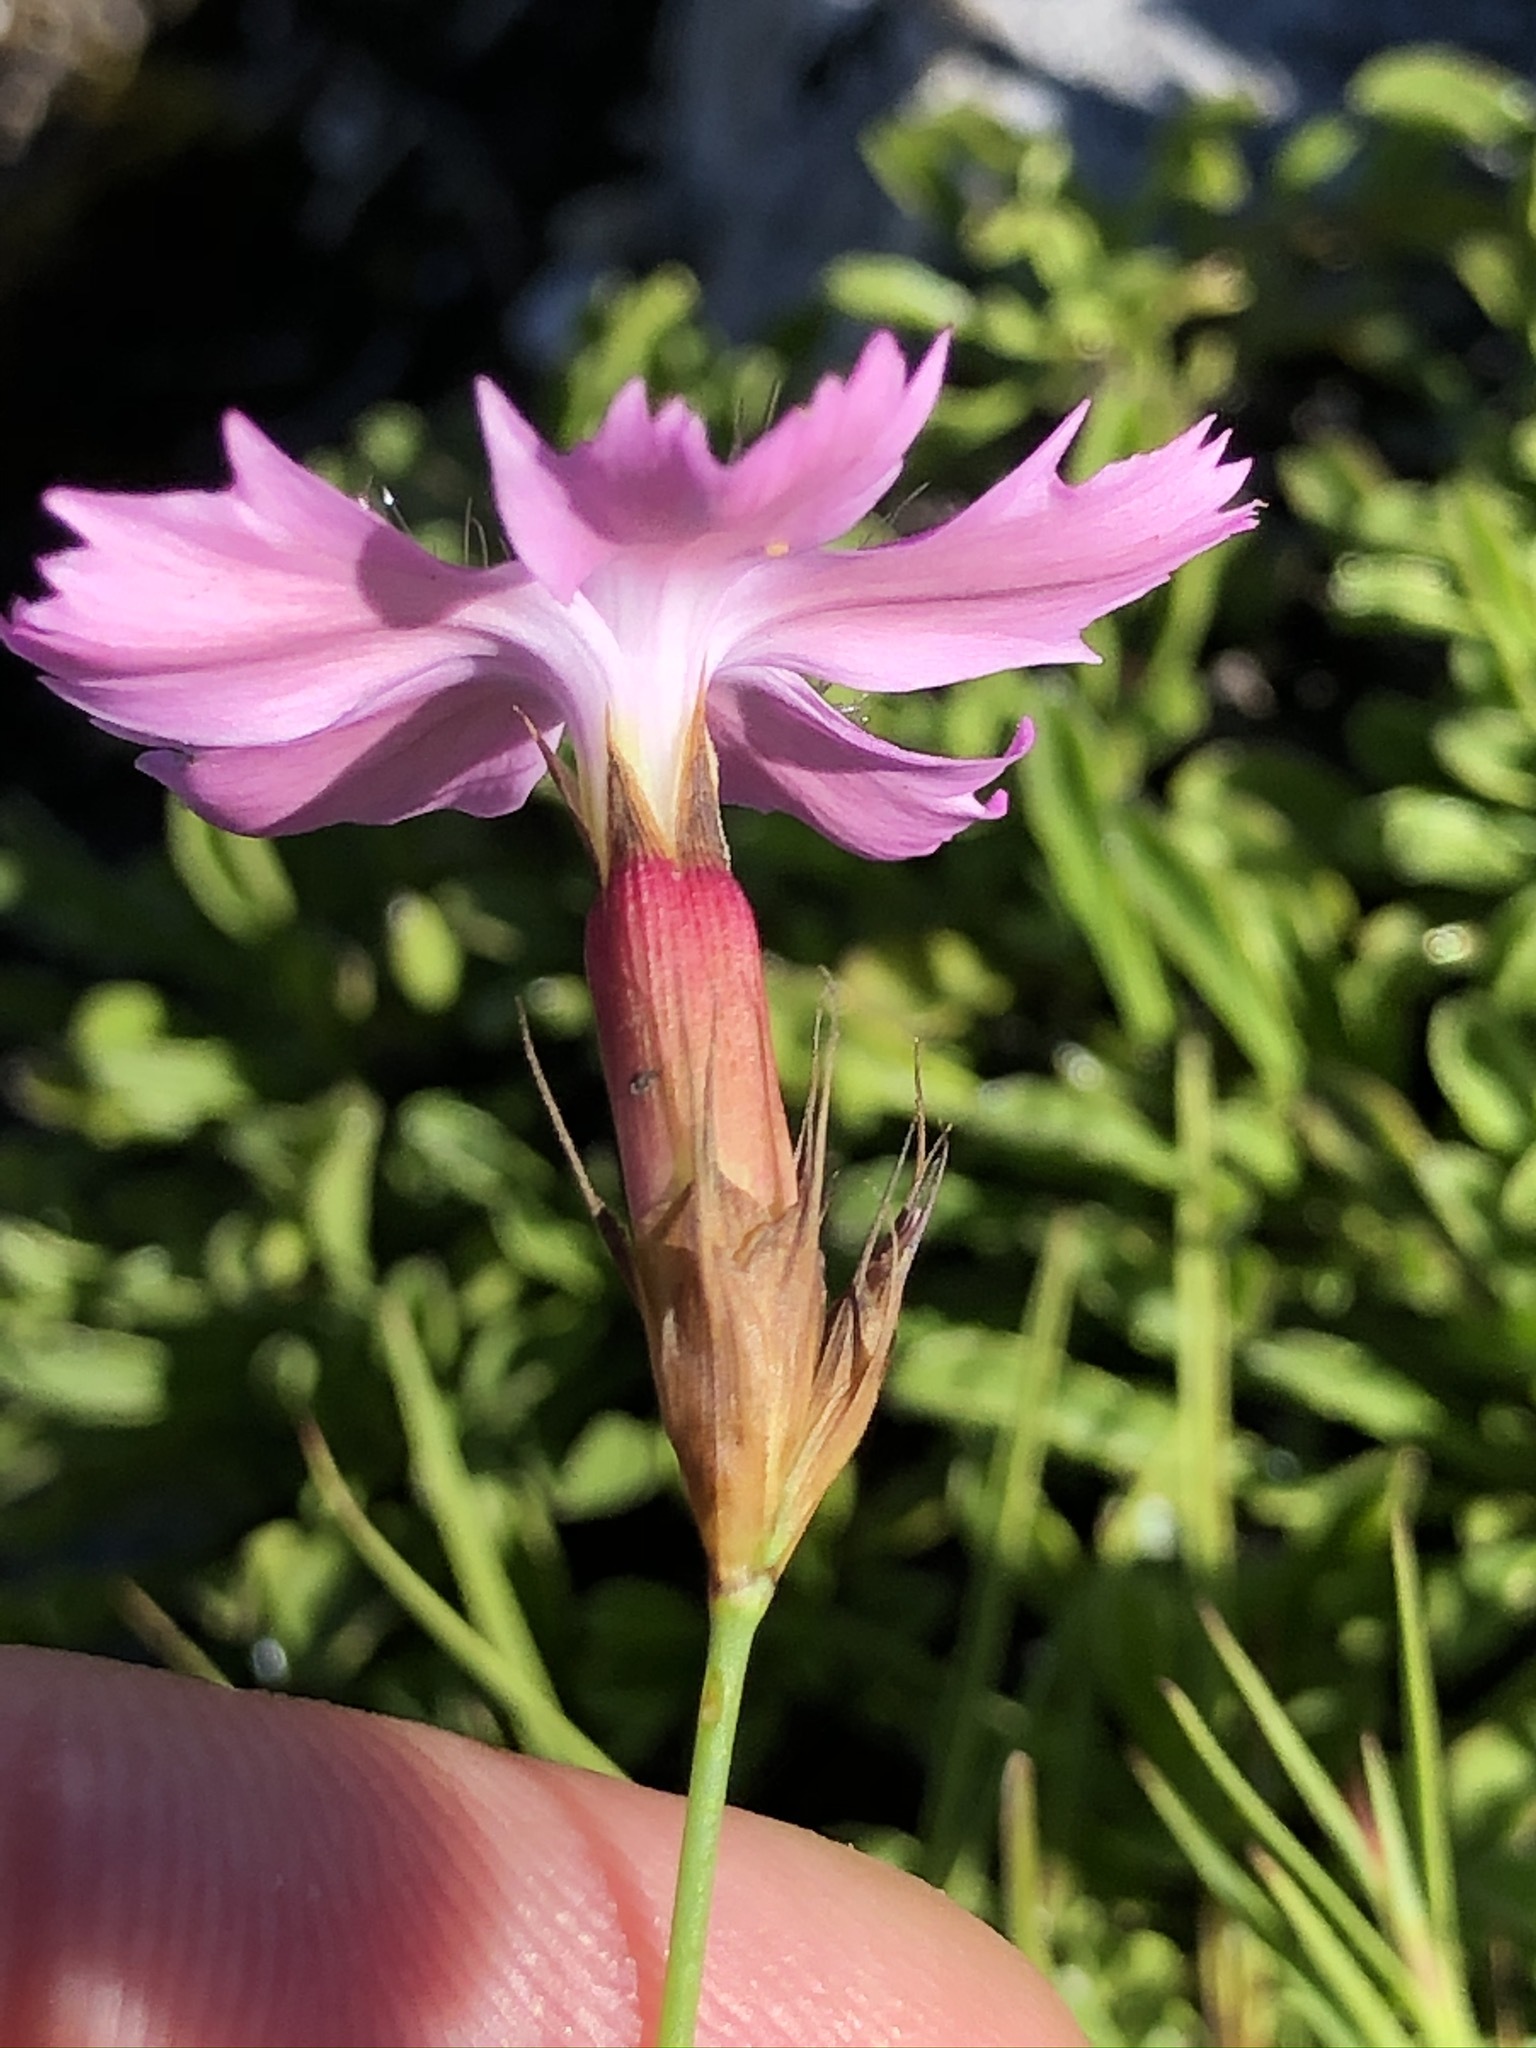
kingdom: Plantae
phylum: Tracheophyta
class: Magnoliopsida
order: Caryophyllales
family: Caryophyllaceae
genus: Dianthus
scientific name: Dianthus carthusianorum
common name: Carthusian pink
